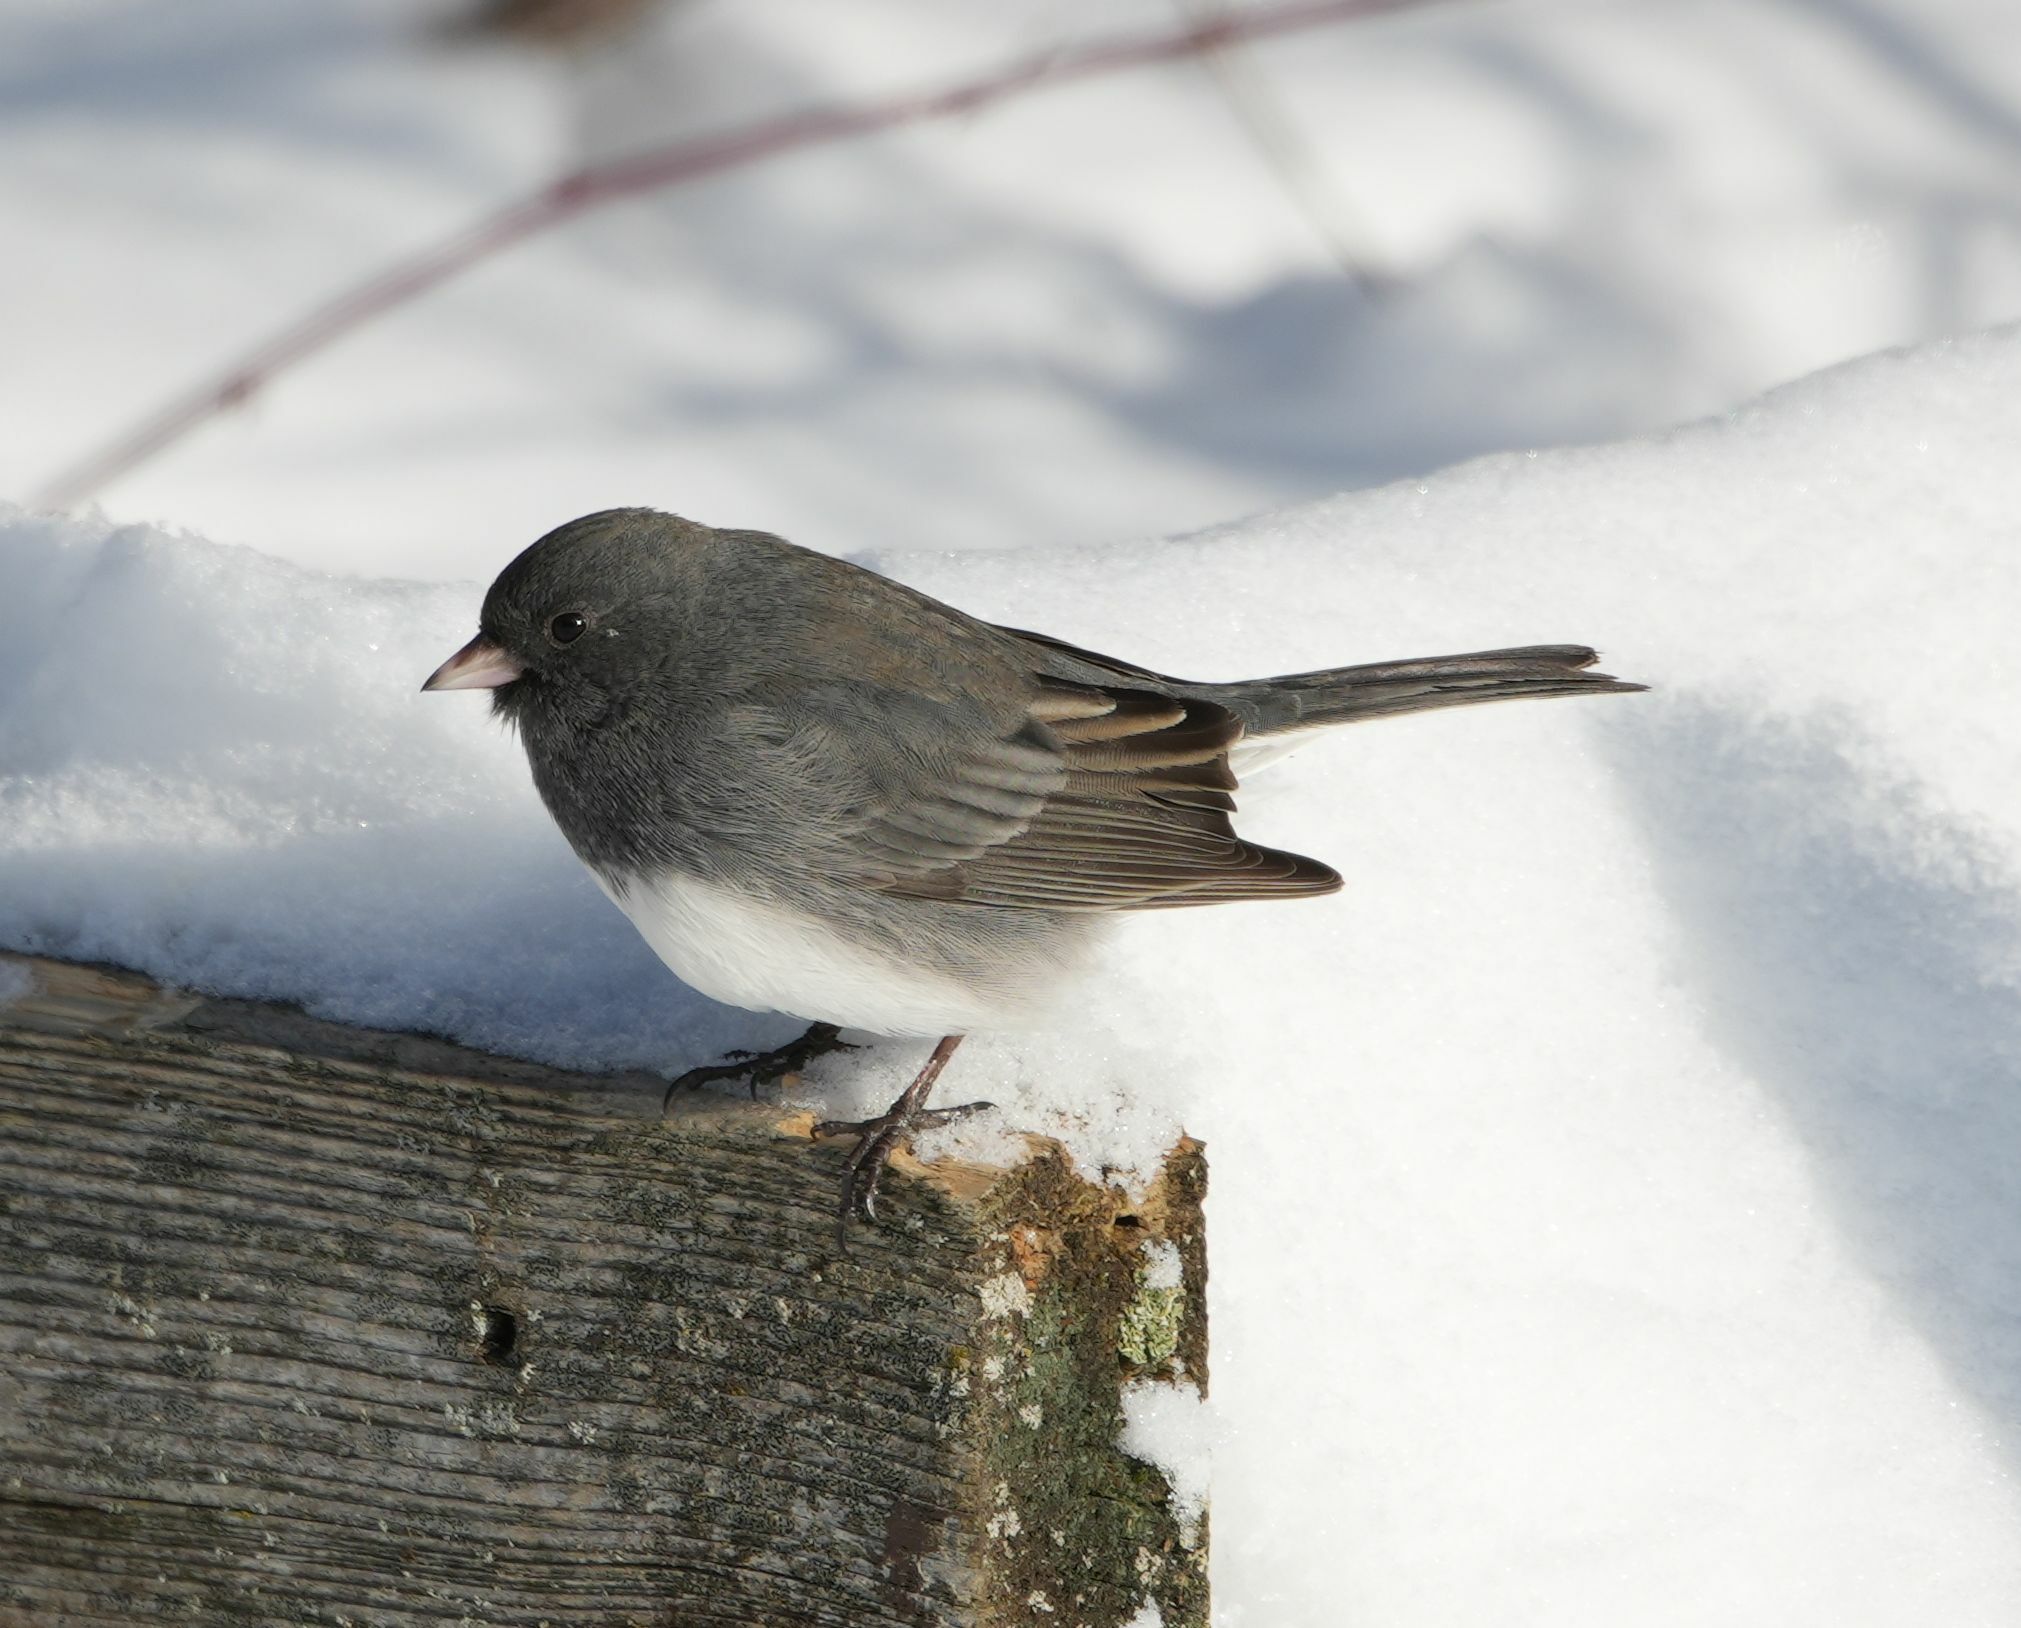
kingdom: Animalia
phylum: Chordata
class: Aves
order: Passeriformes
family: Passerellidae
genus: Junco
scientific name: Junco hyemalis
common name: Dark-eyed junco
